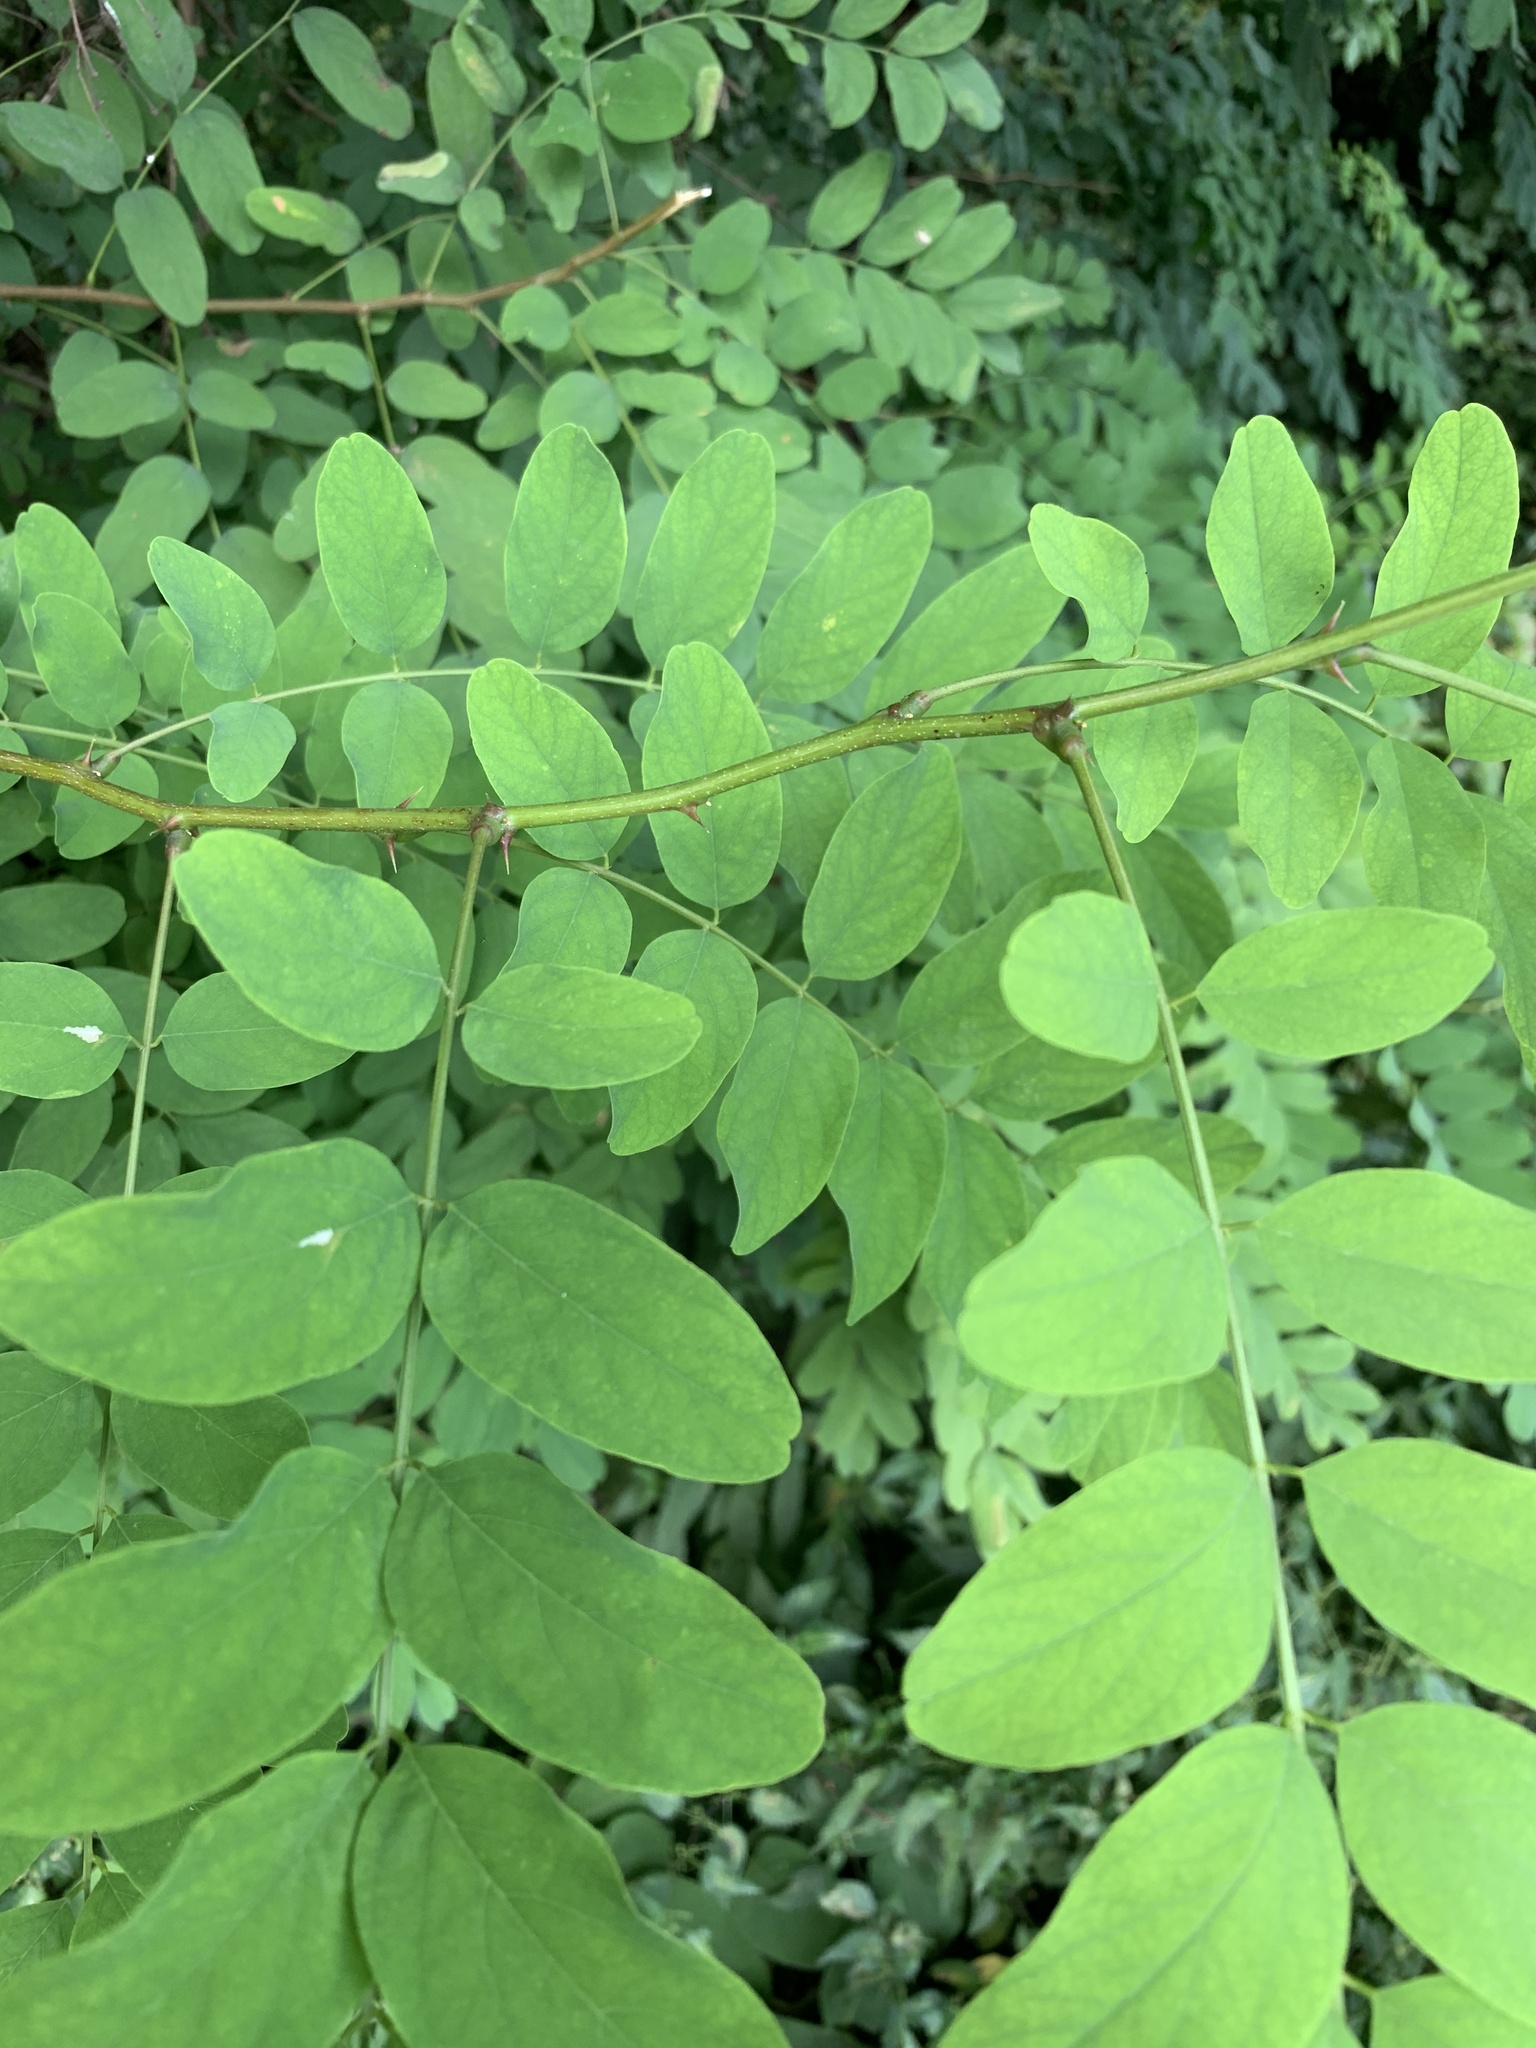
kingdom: Plantae
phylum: Tracheophyta
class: Magnoliopsida
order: Fabales
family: Fabaceae
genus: Robinia
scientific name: Robinia pseudoacacia
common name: Black locust
